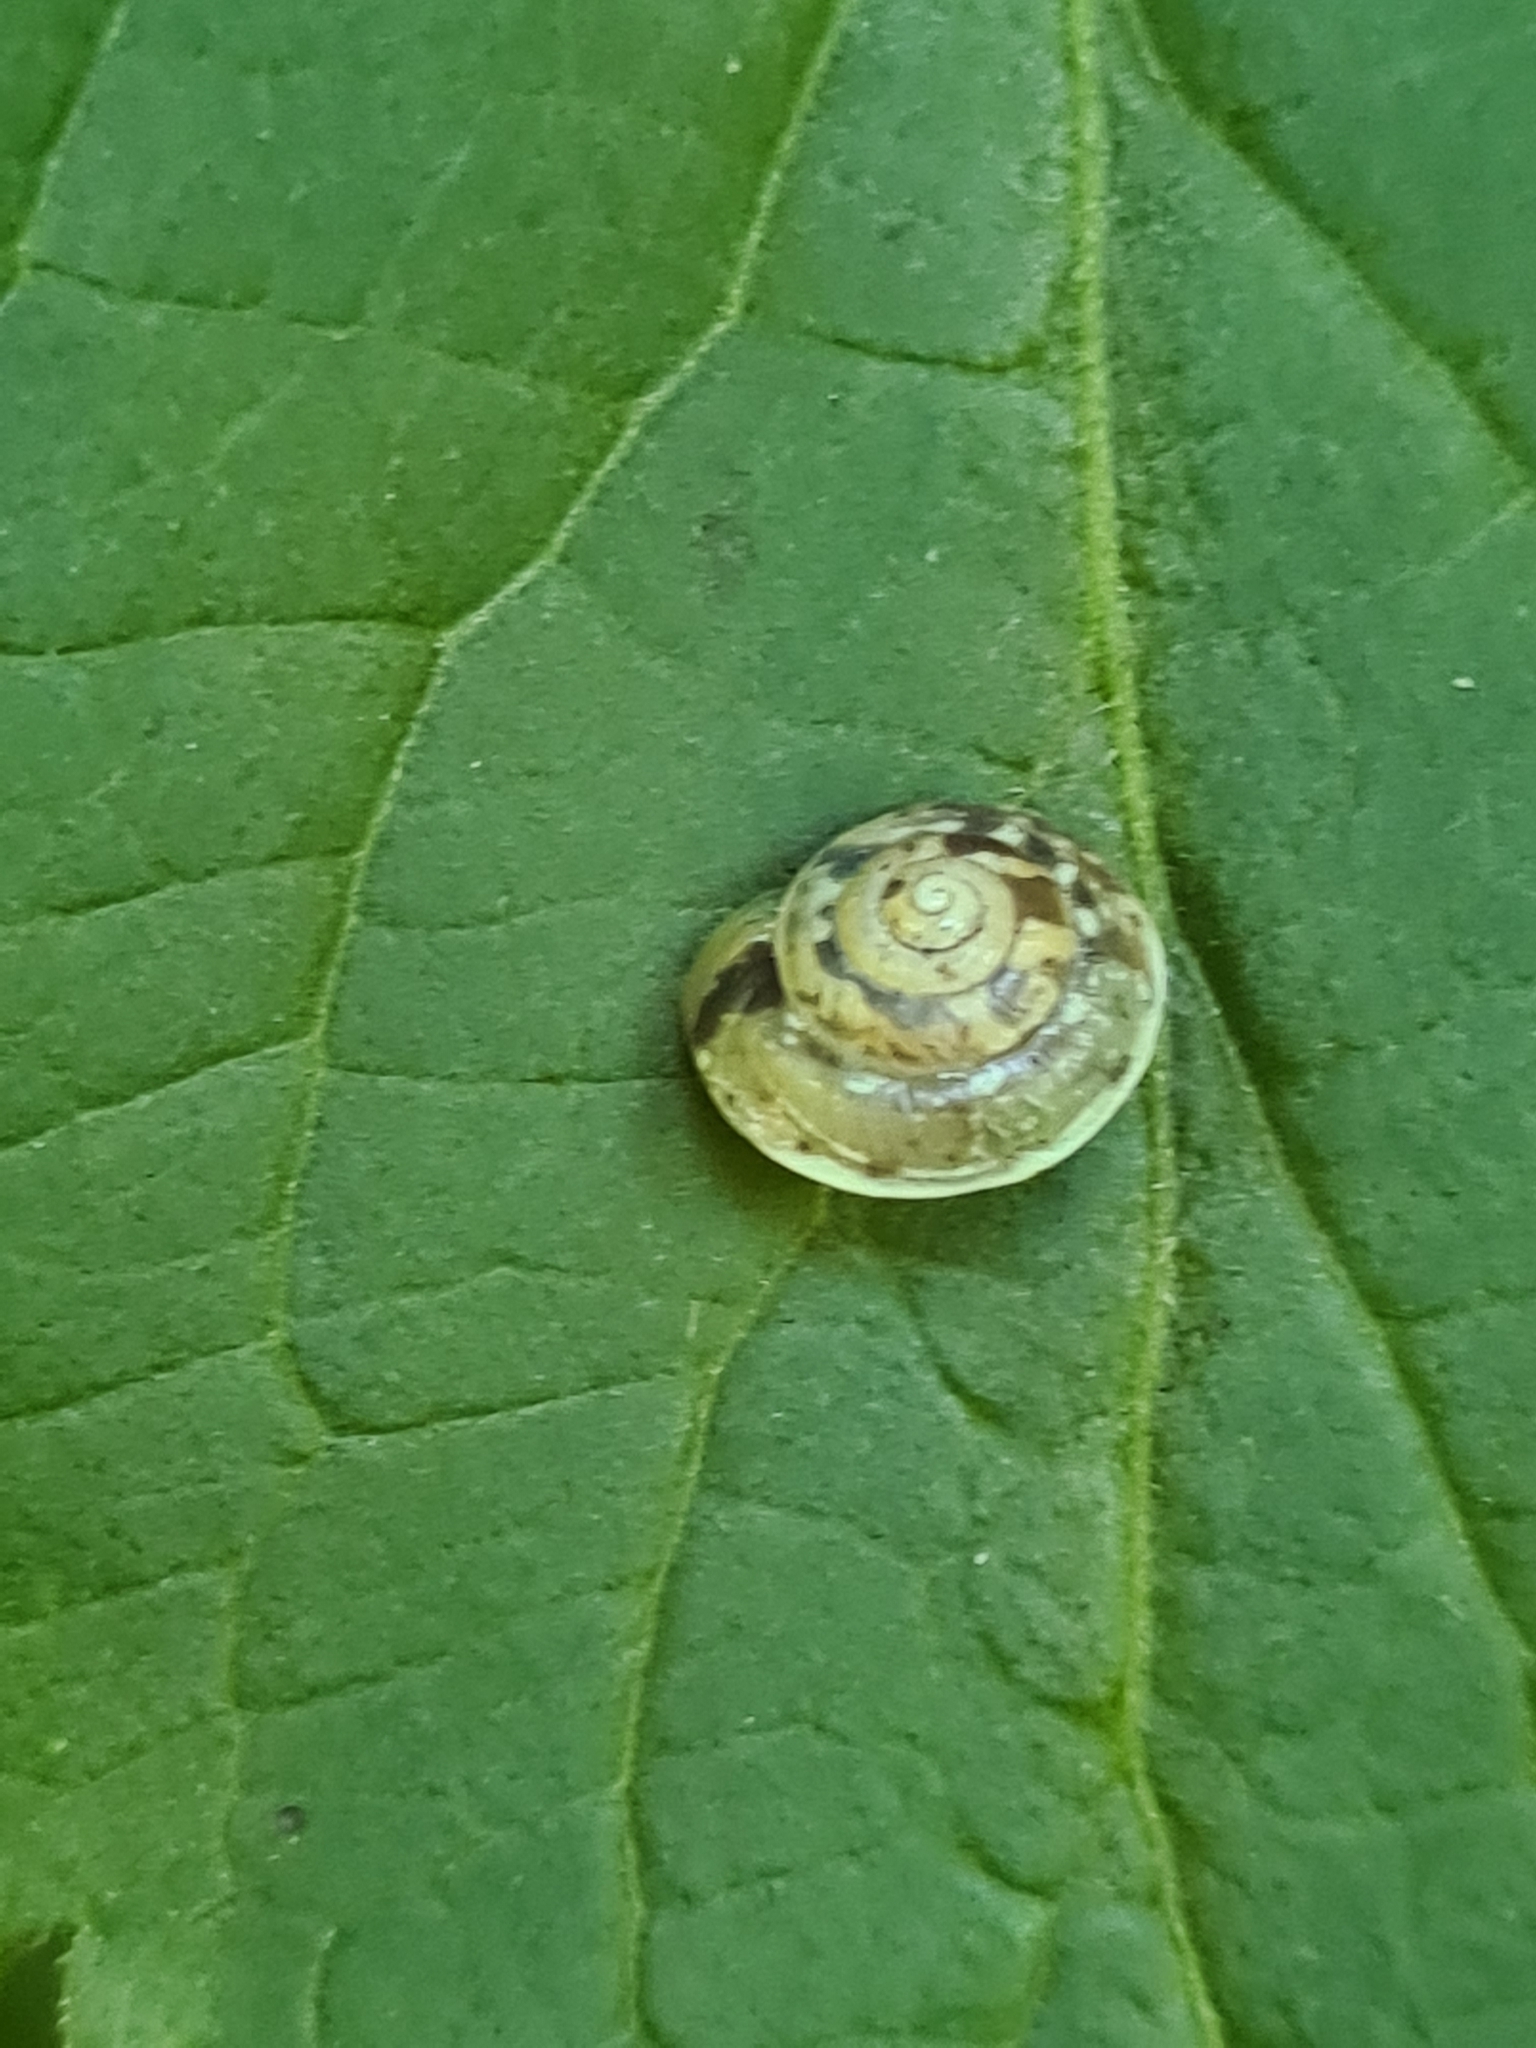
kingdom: Animalia
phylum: Mollusca
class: Gastropoda
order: Stylommatophora
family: Hygromiidae
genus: Hygromia
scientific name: Hygromia cinctella
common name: Girdled snail
